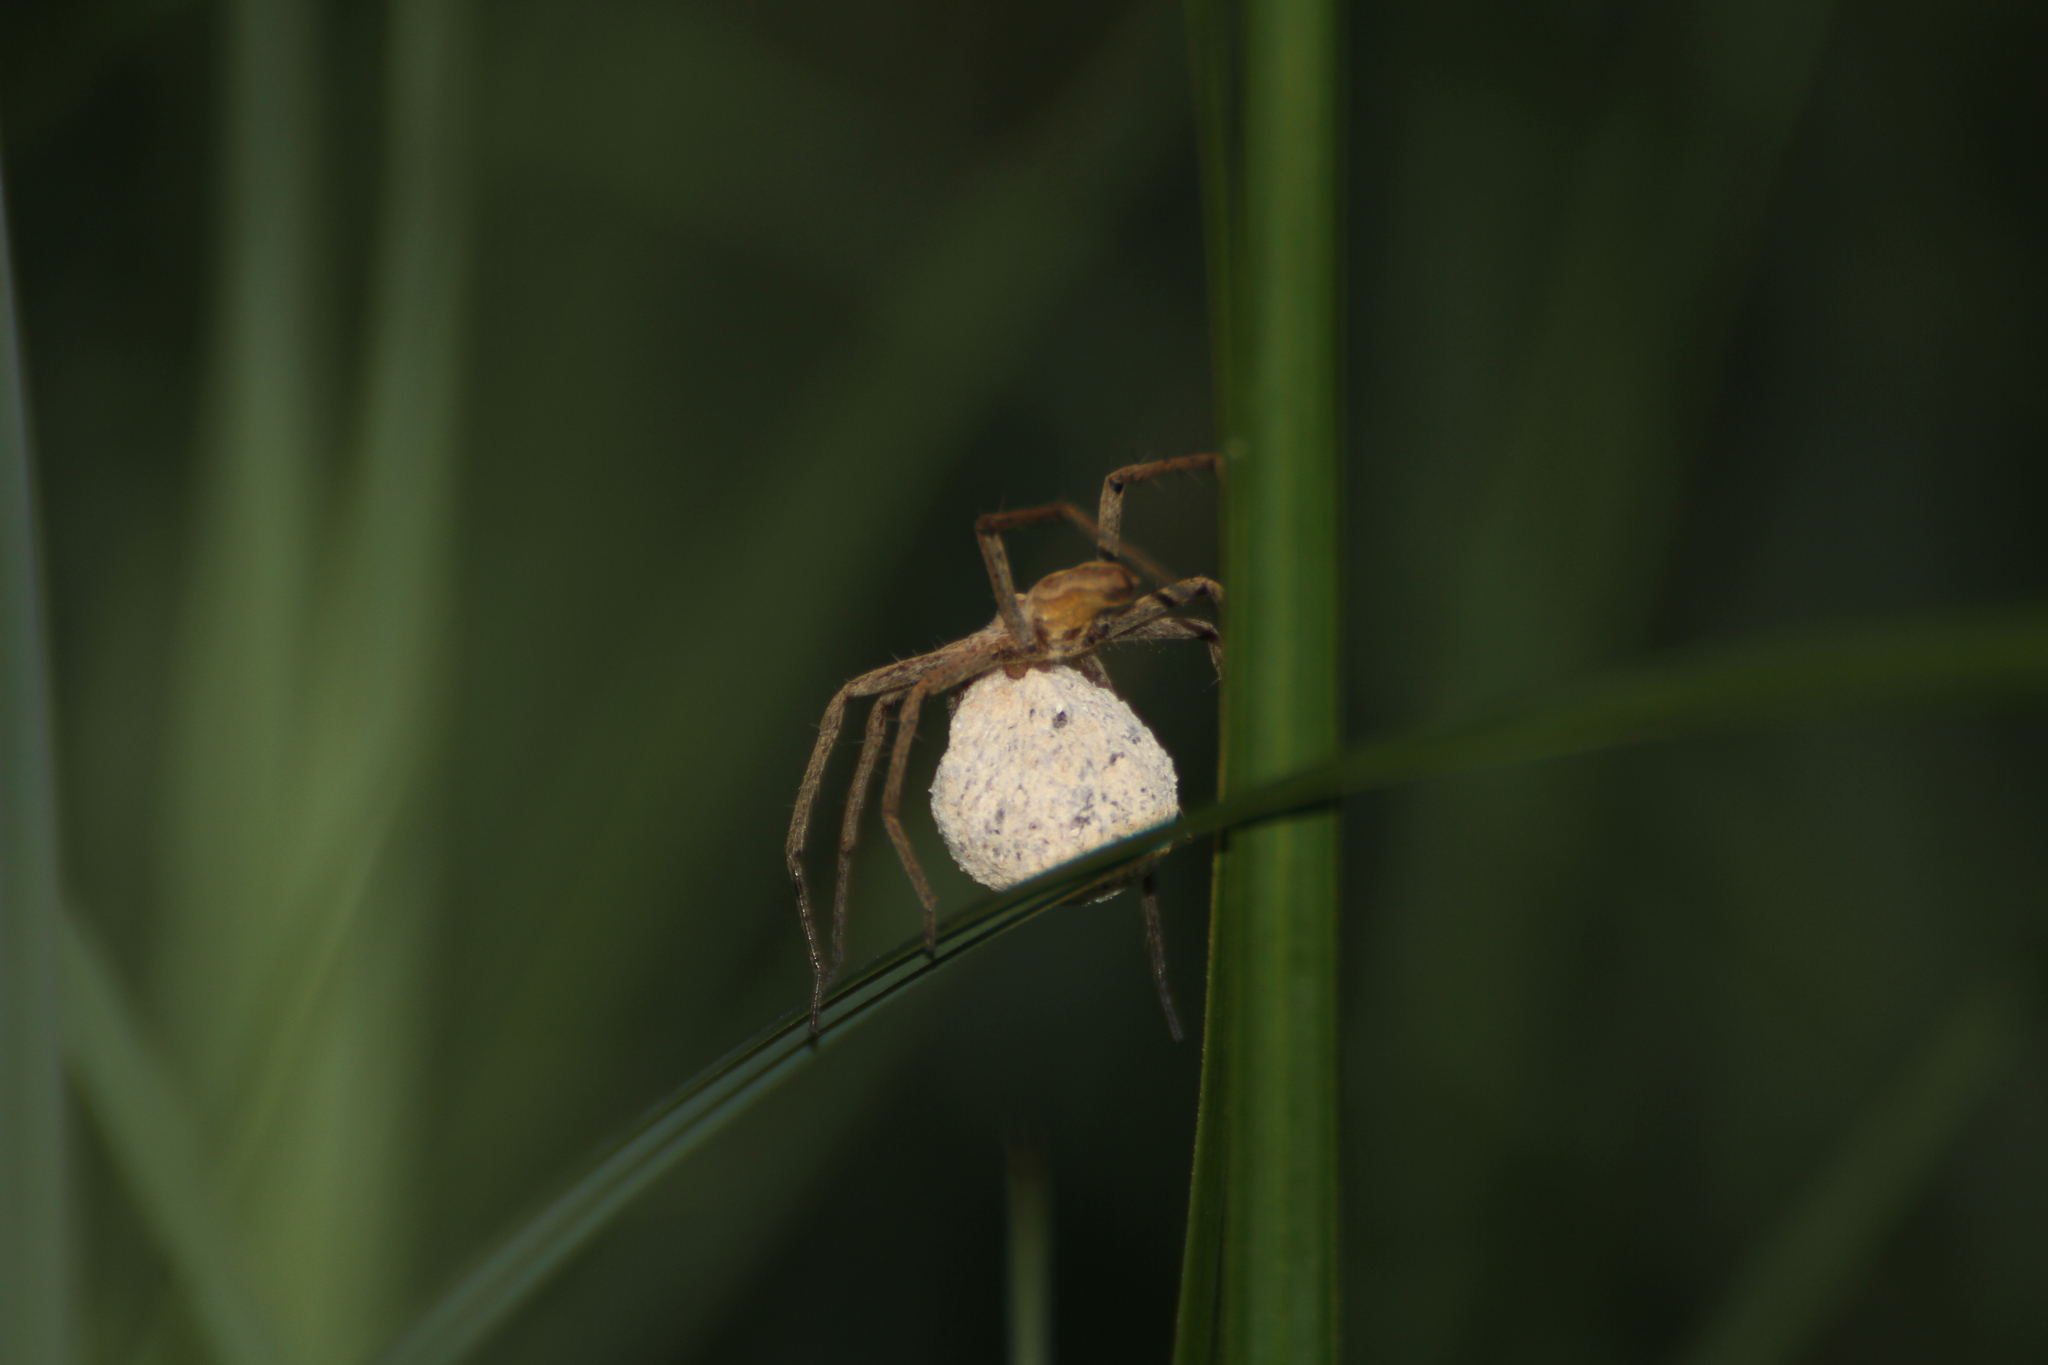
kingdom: Animalia
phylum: Arthropoda
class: Arachnida
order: Araneae
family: Pisauridae
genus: Pisaura
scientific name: Pisaura
